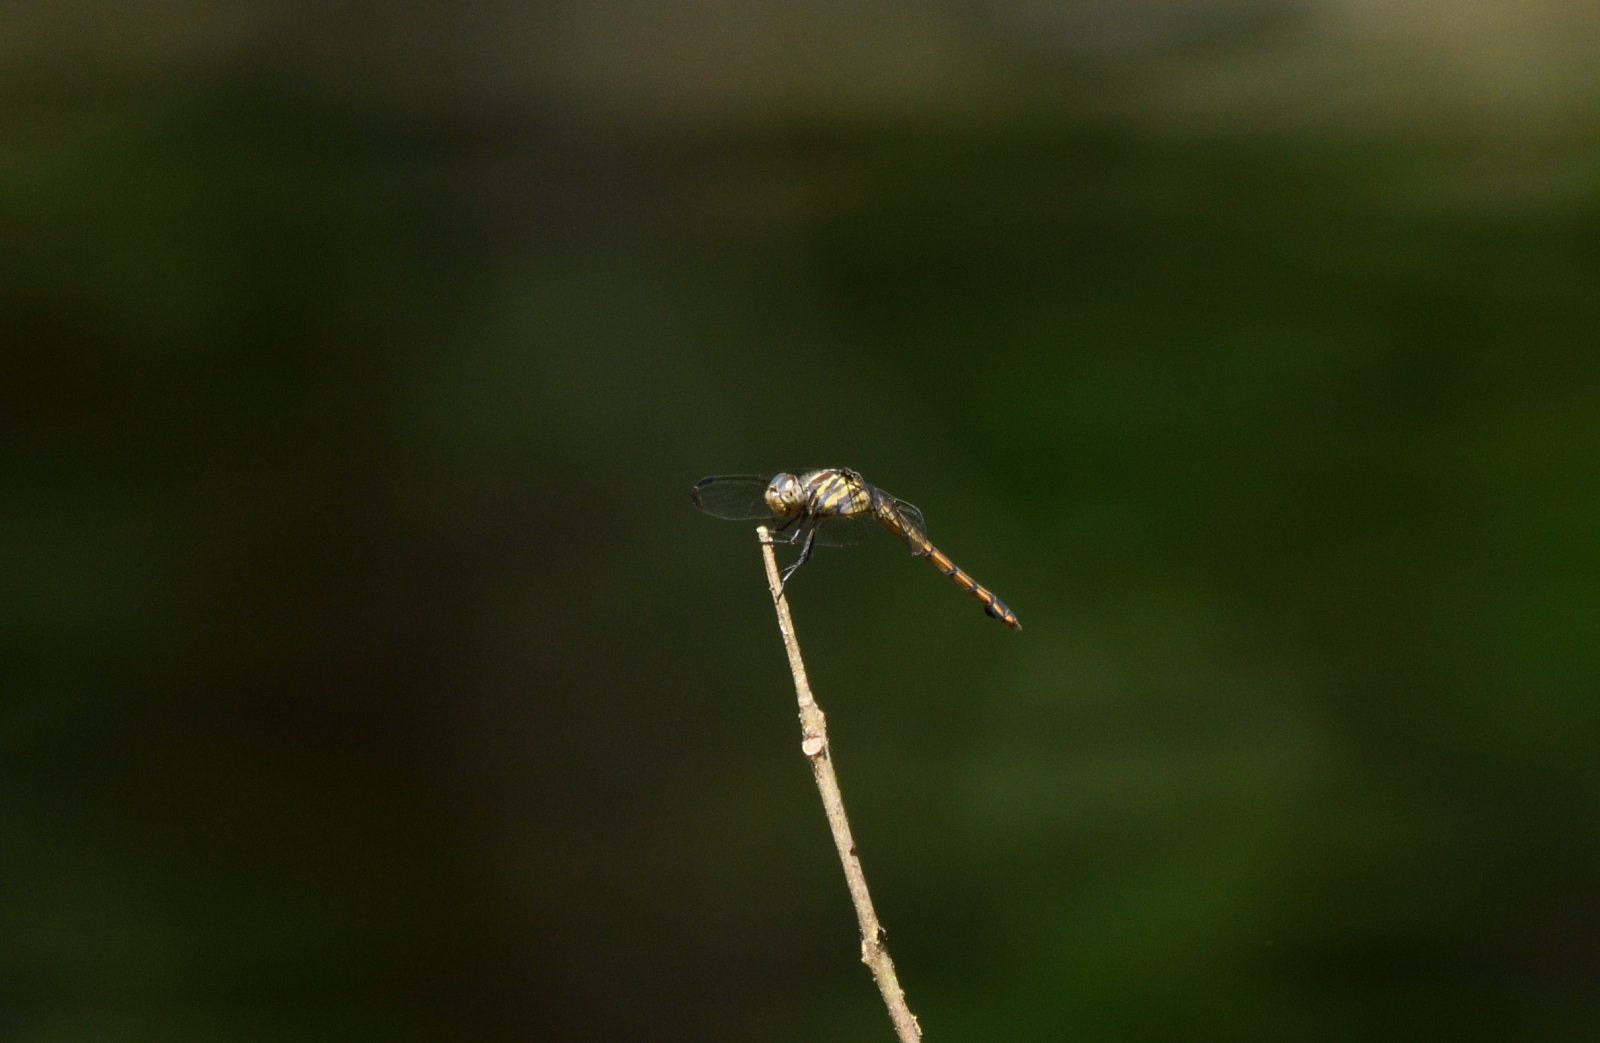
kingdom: Animalia
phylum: Arthropoda
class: Insecta
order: Odonata
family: Libellulidae
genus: Potamarcha
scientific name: Potamarcha congener
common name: Blue chaser
